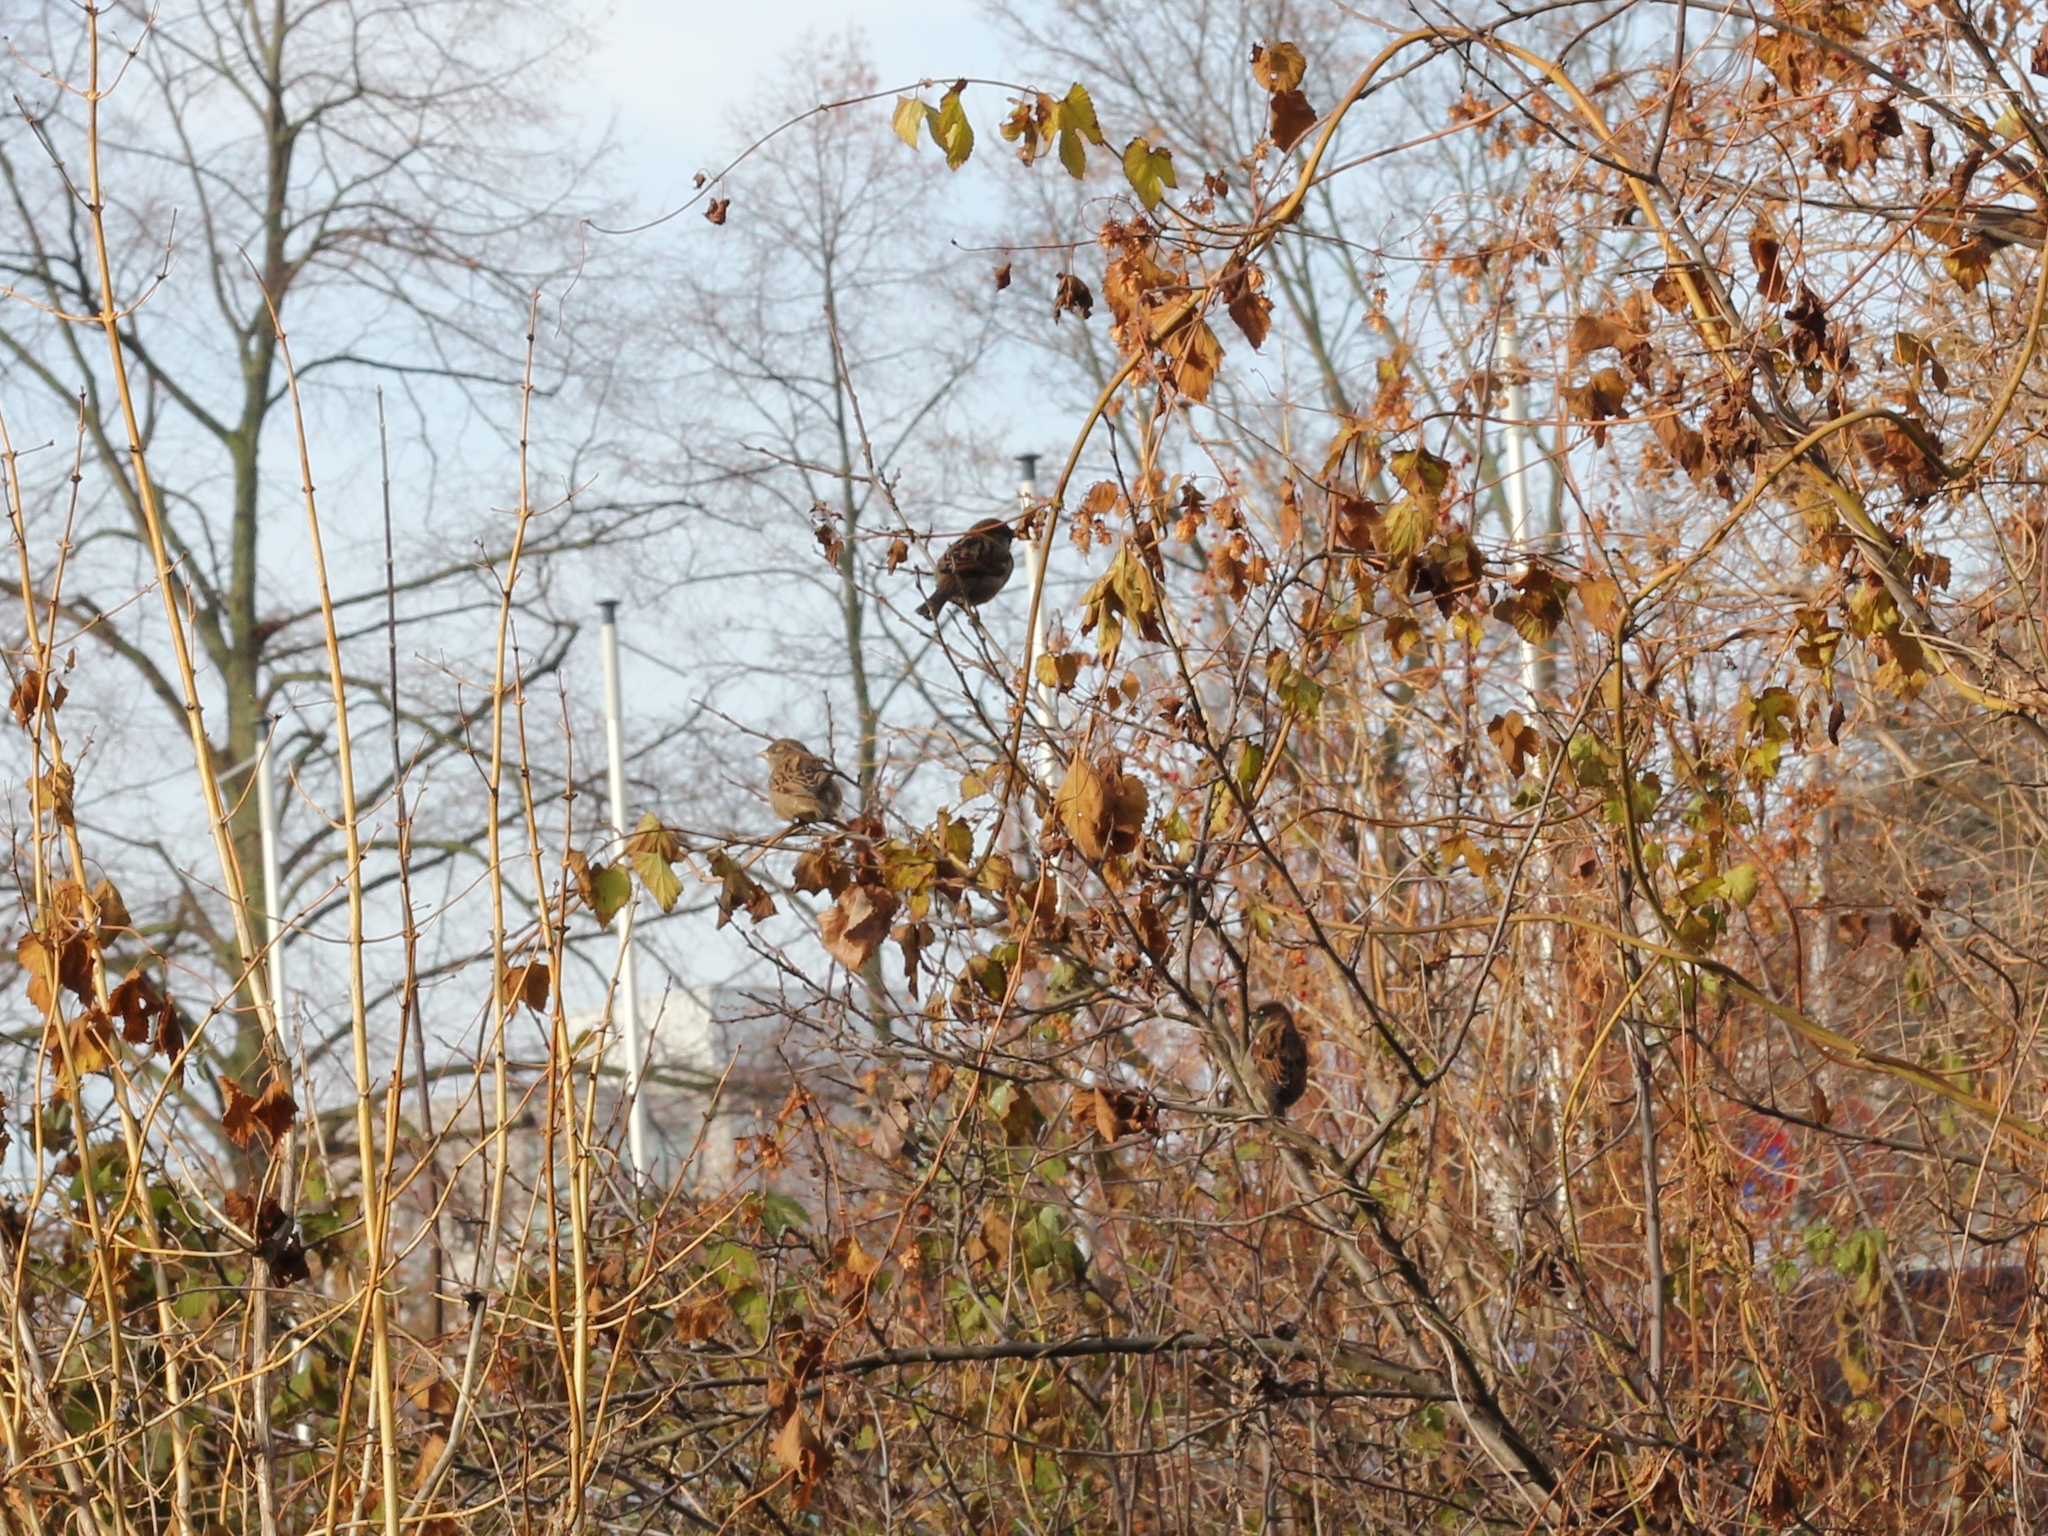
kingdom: Animalia
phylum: Chordata
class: Aves
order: Passeriformes
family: Passeridae
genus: Passer
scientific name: Passer domesticus
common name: House sparrow
